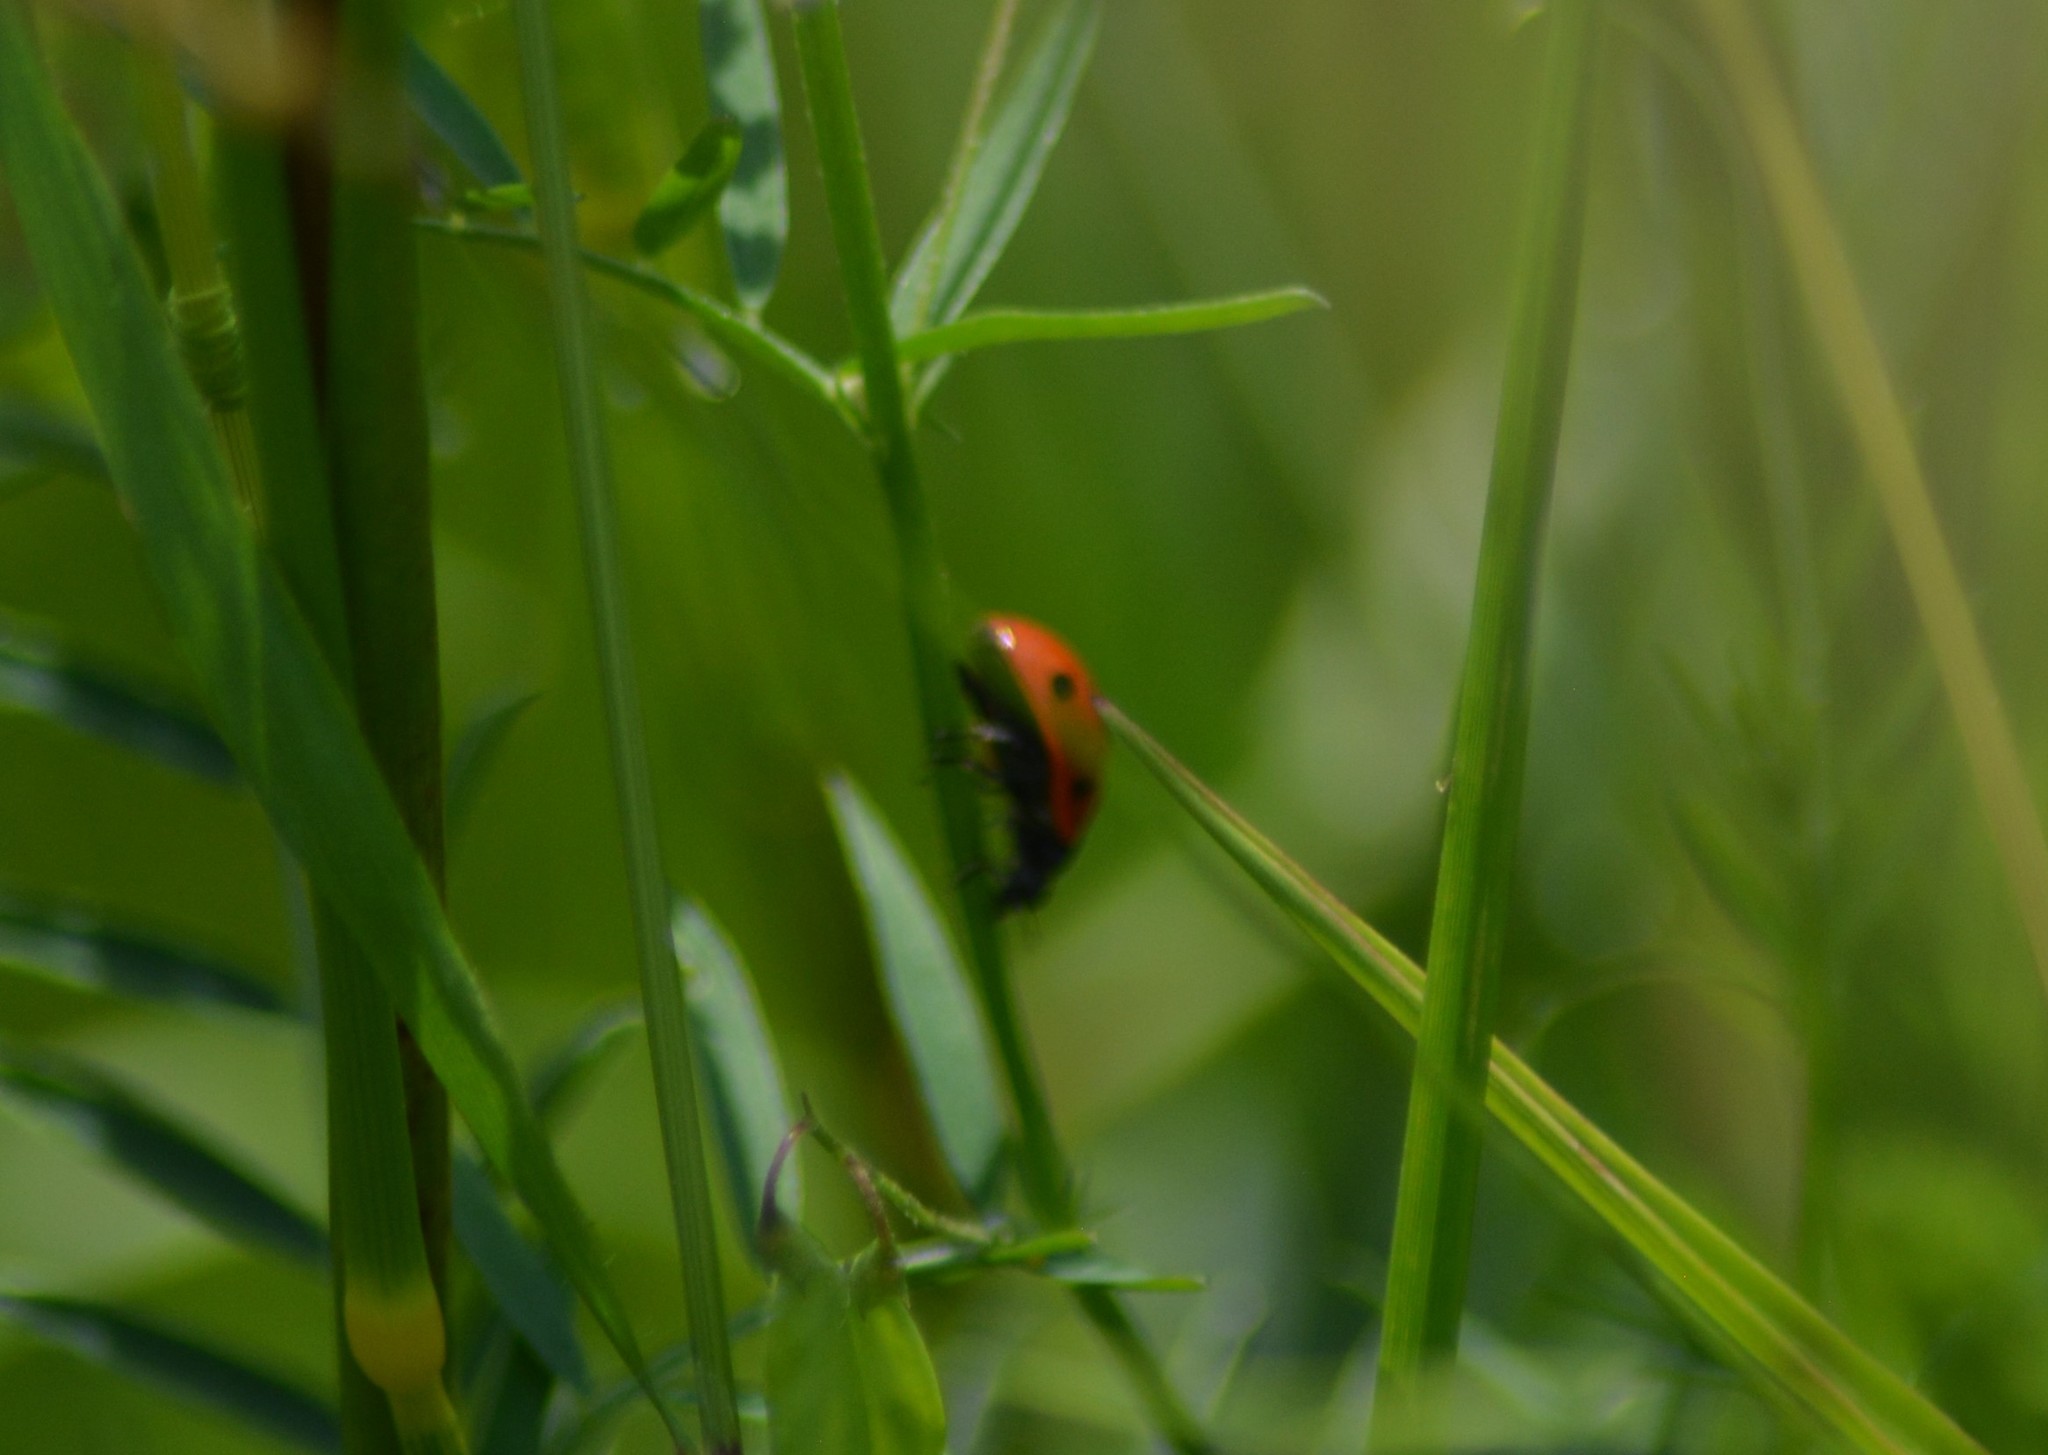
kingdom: Animalia
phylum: Arthropoda
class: Insecta
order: Coleoptera
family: Coccinellidae
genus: Coccinella
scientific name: Coccinella septempunctata
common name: Sevenspotted lady beetle
